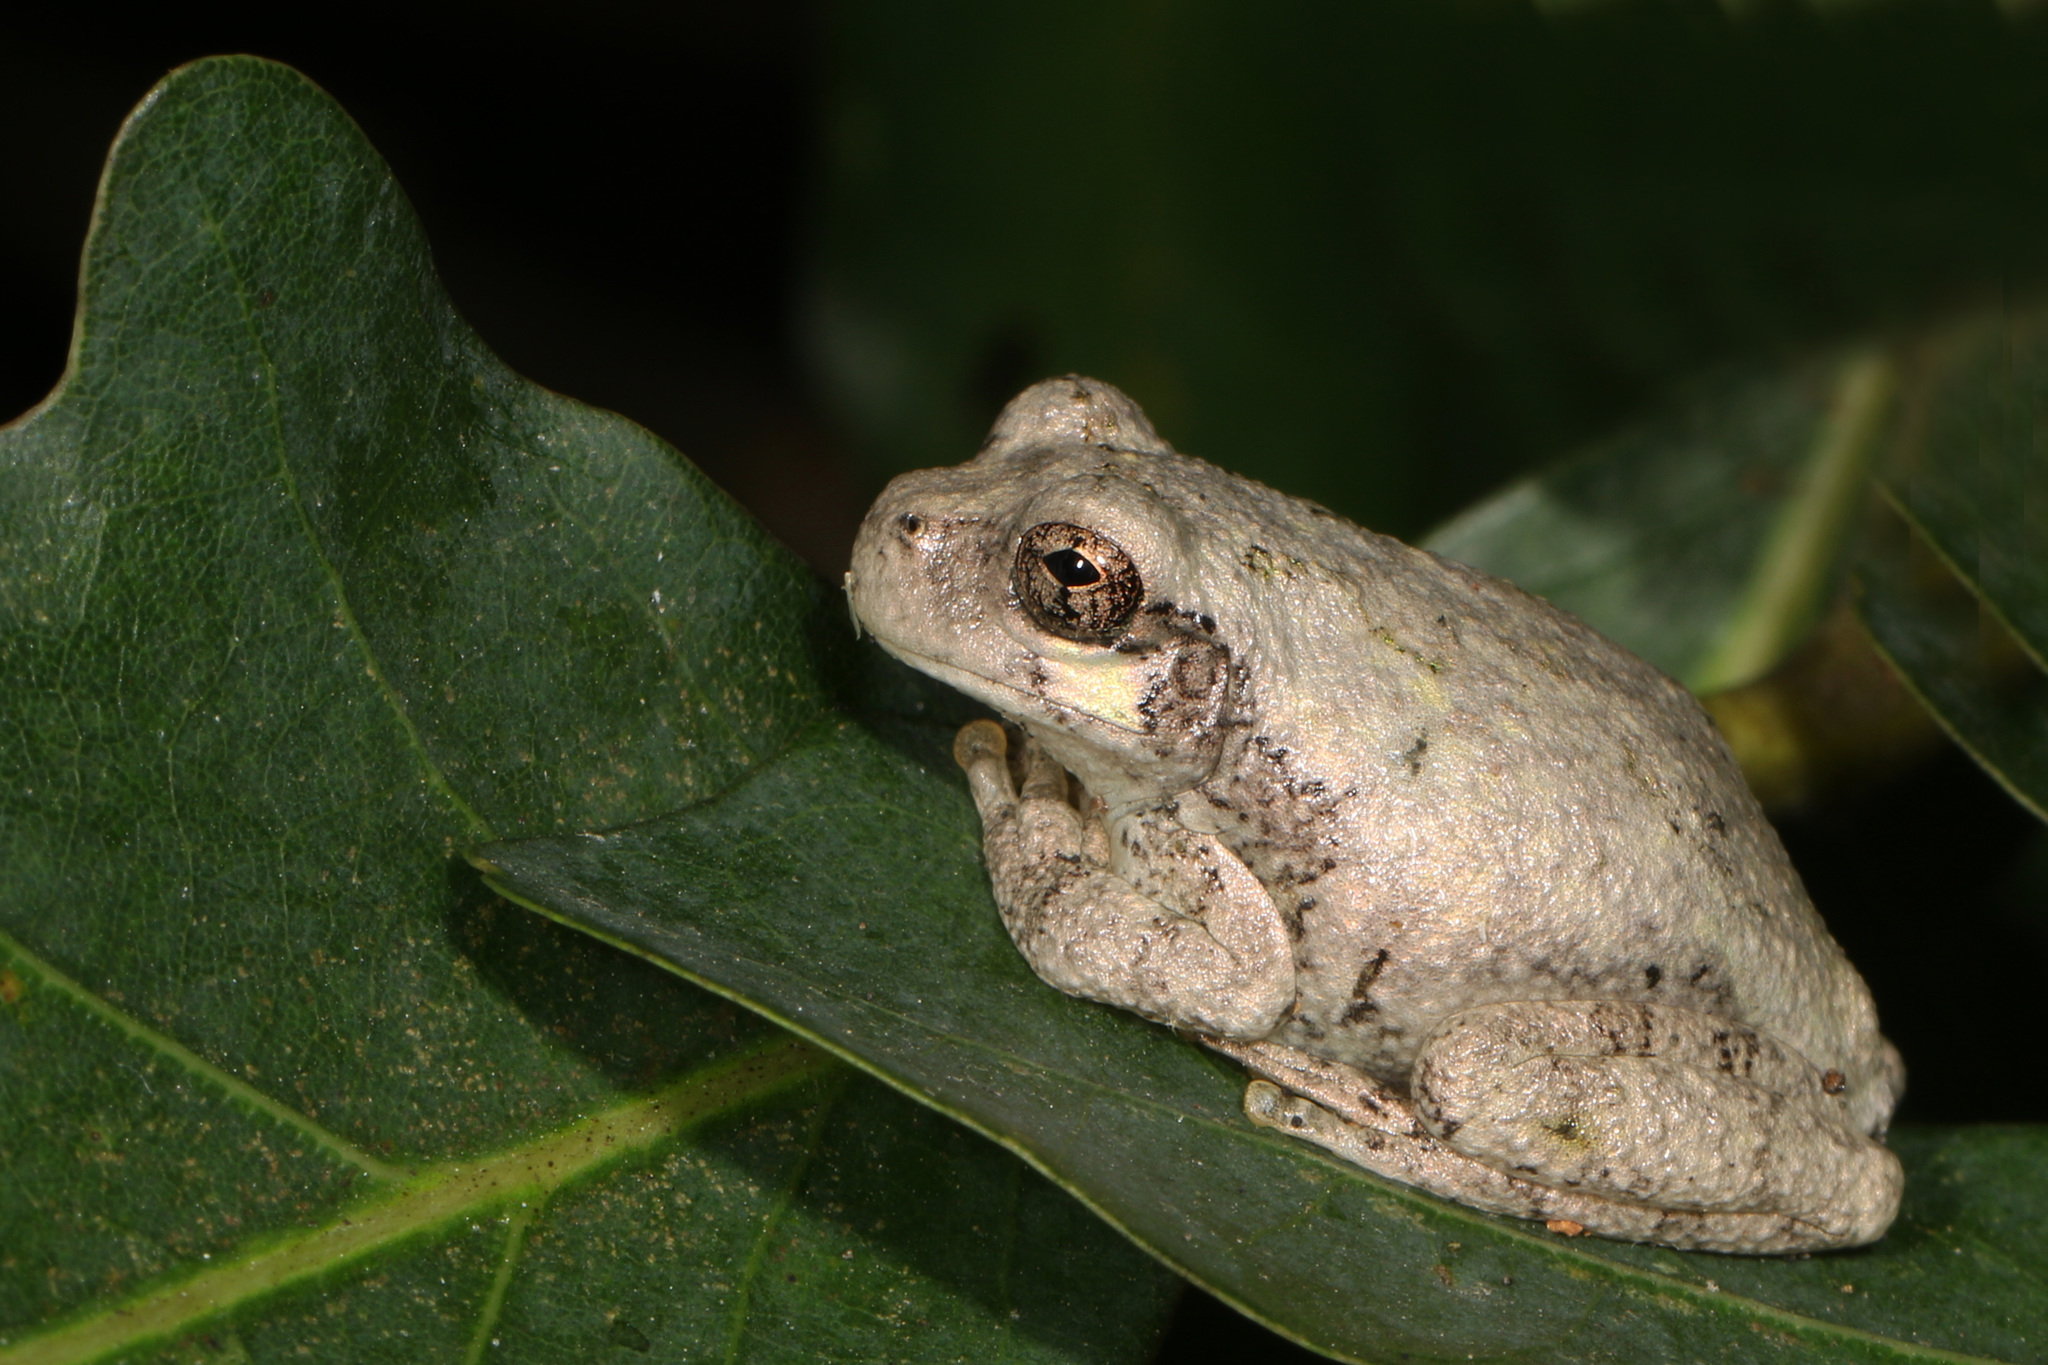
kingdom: Animalia
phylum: Chordata
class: Amphibia
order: Anura
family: Hylidae
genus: Dryophytes
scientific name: Dryophytes chrysoscelis
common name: Cope's gray treefrog
